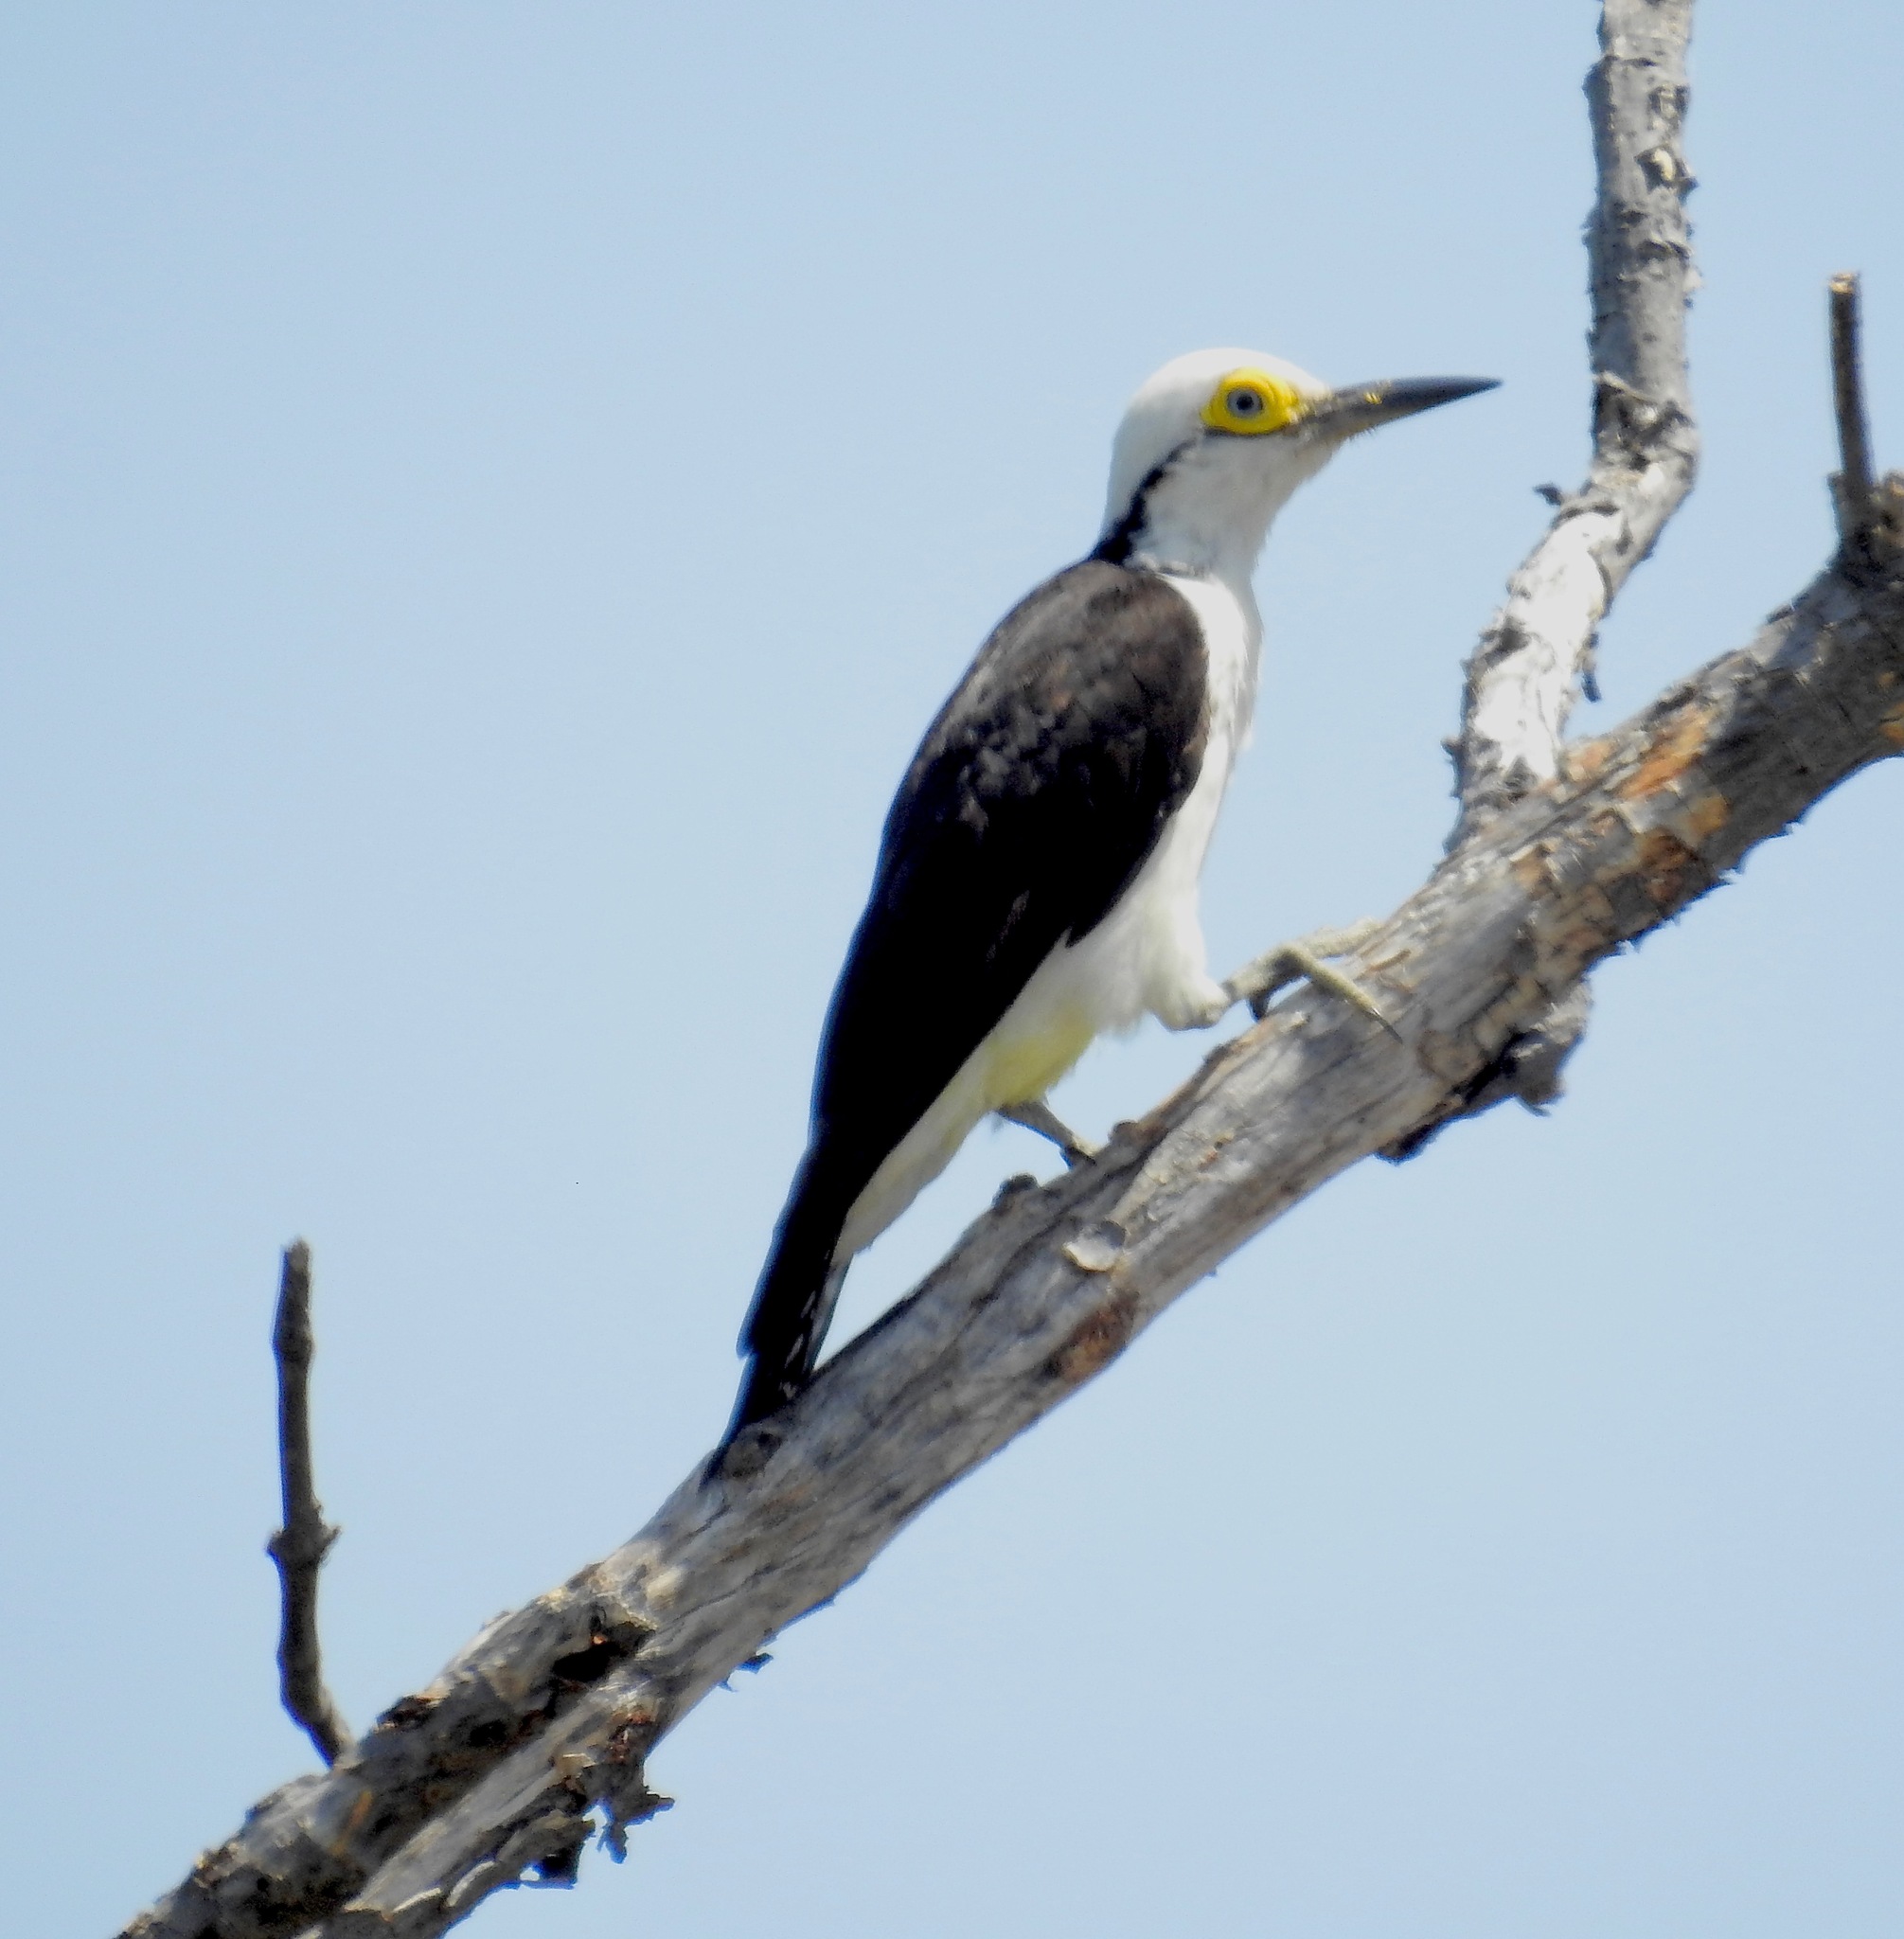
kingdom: Animalia
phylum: Chordata
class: Aves
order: Piciformes
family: Picidae
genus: Melanerpes
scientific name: Melanerpes candidus
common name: White woodpecker
